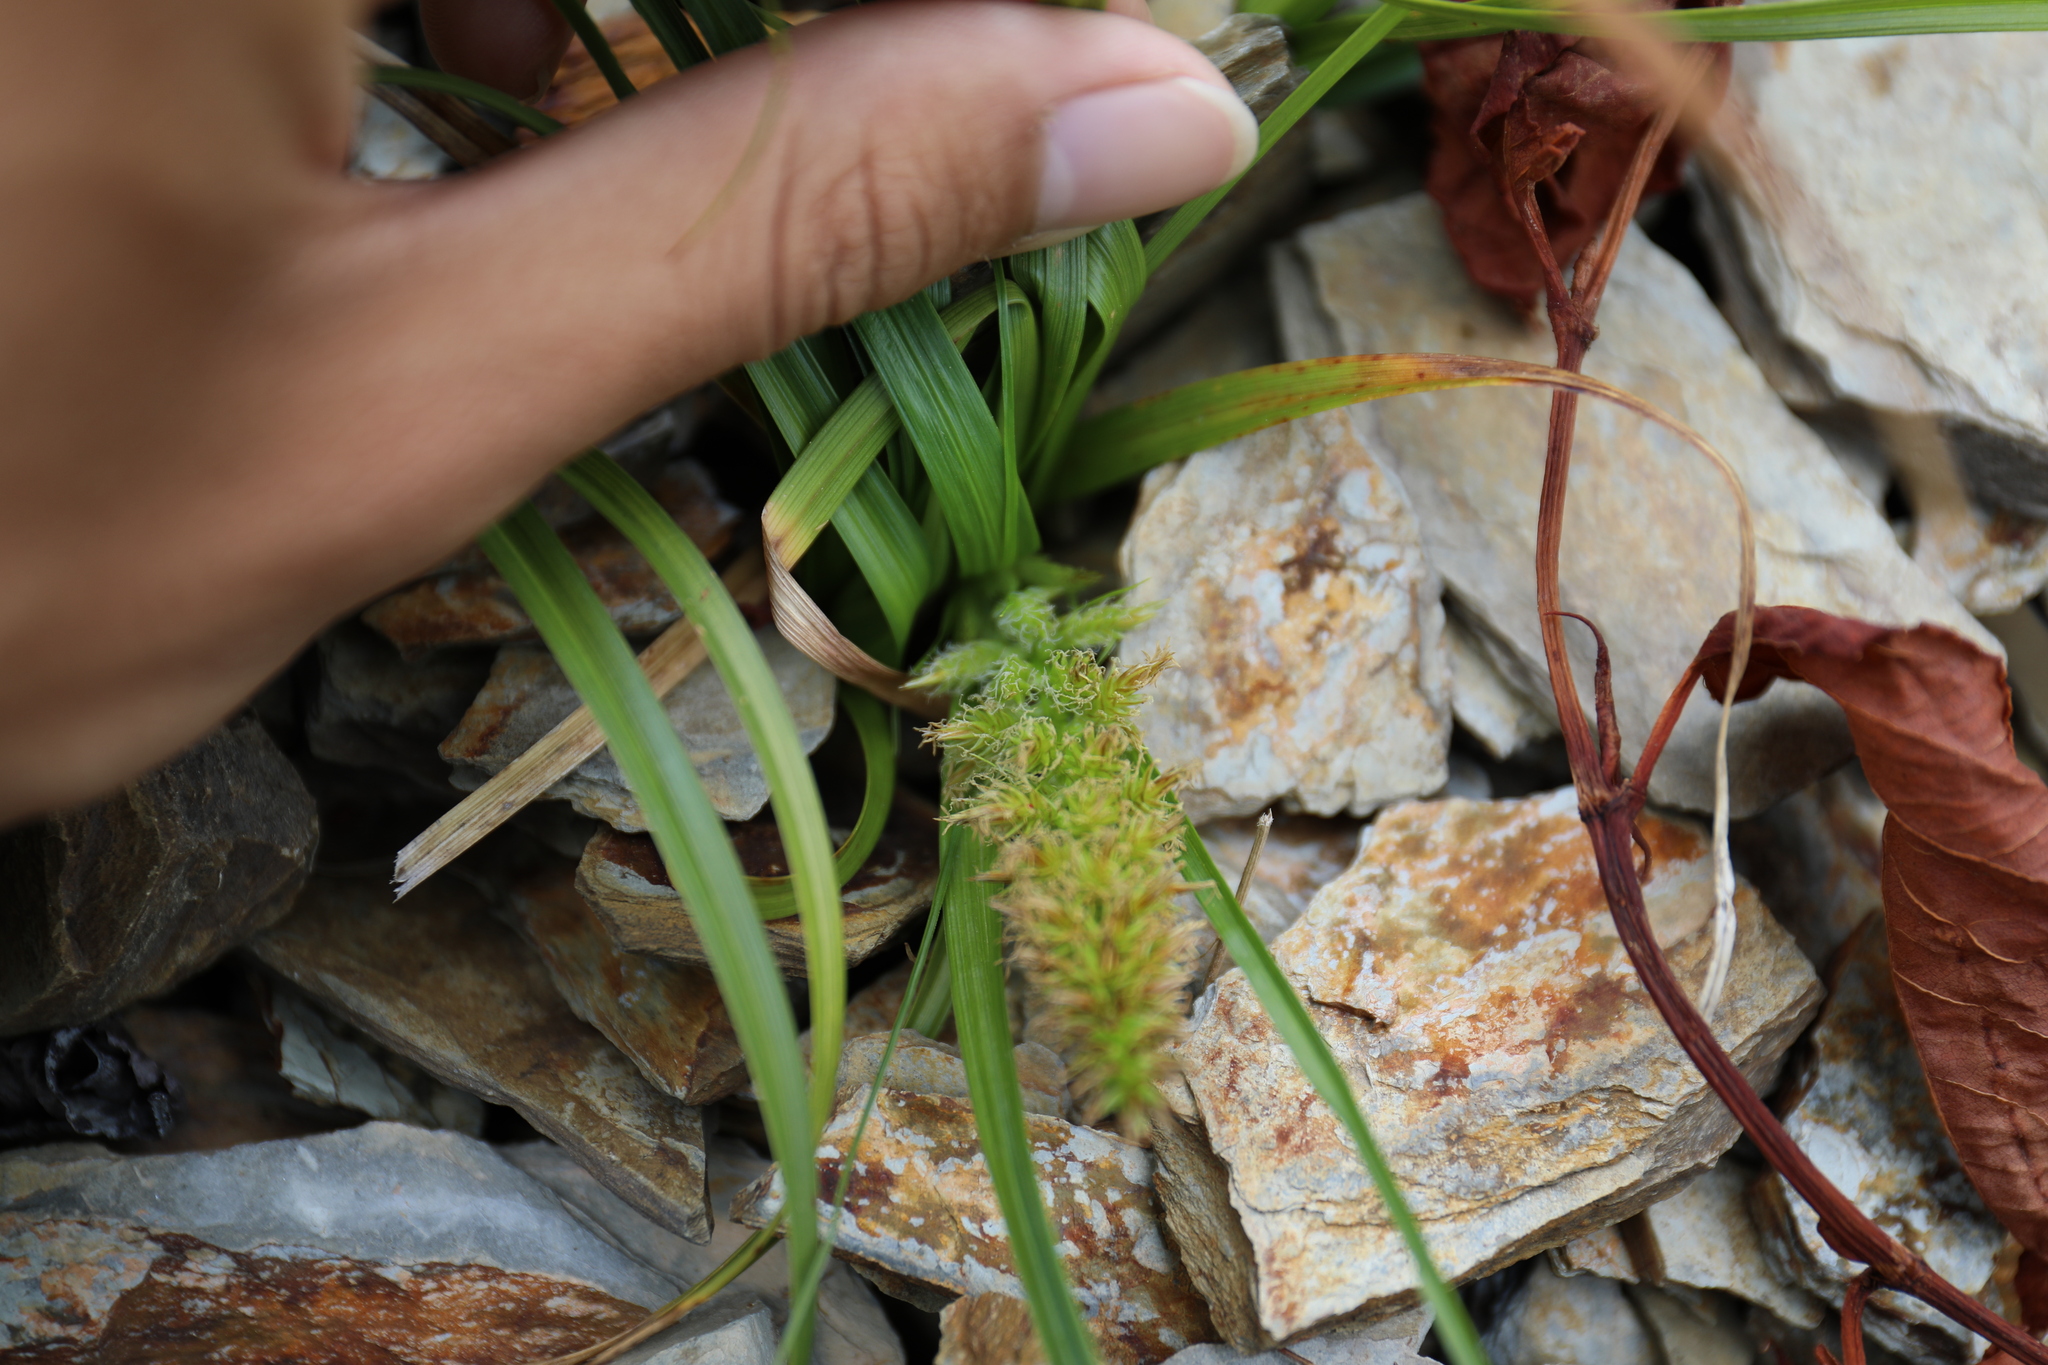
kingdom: Plantae
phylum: Tracheophyta
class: Liliopsida
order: Poales
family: Cyperaceae
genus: Carex
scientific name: Carex satsumensis
